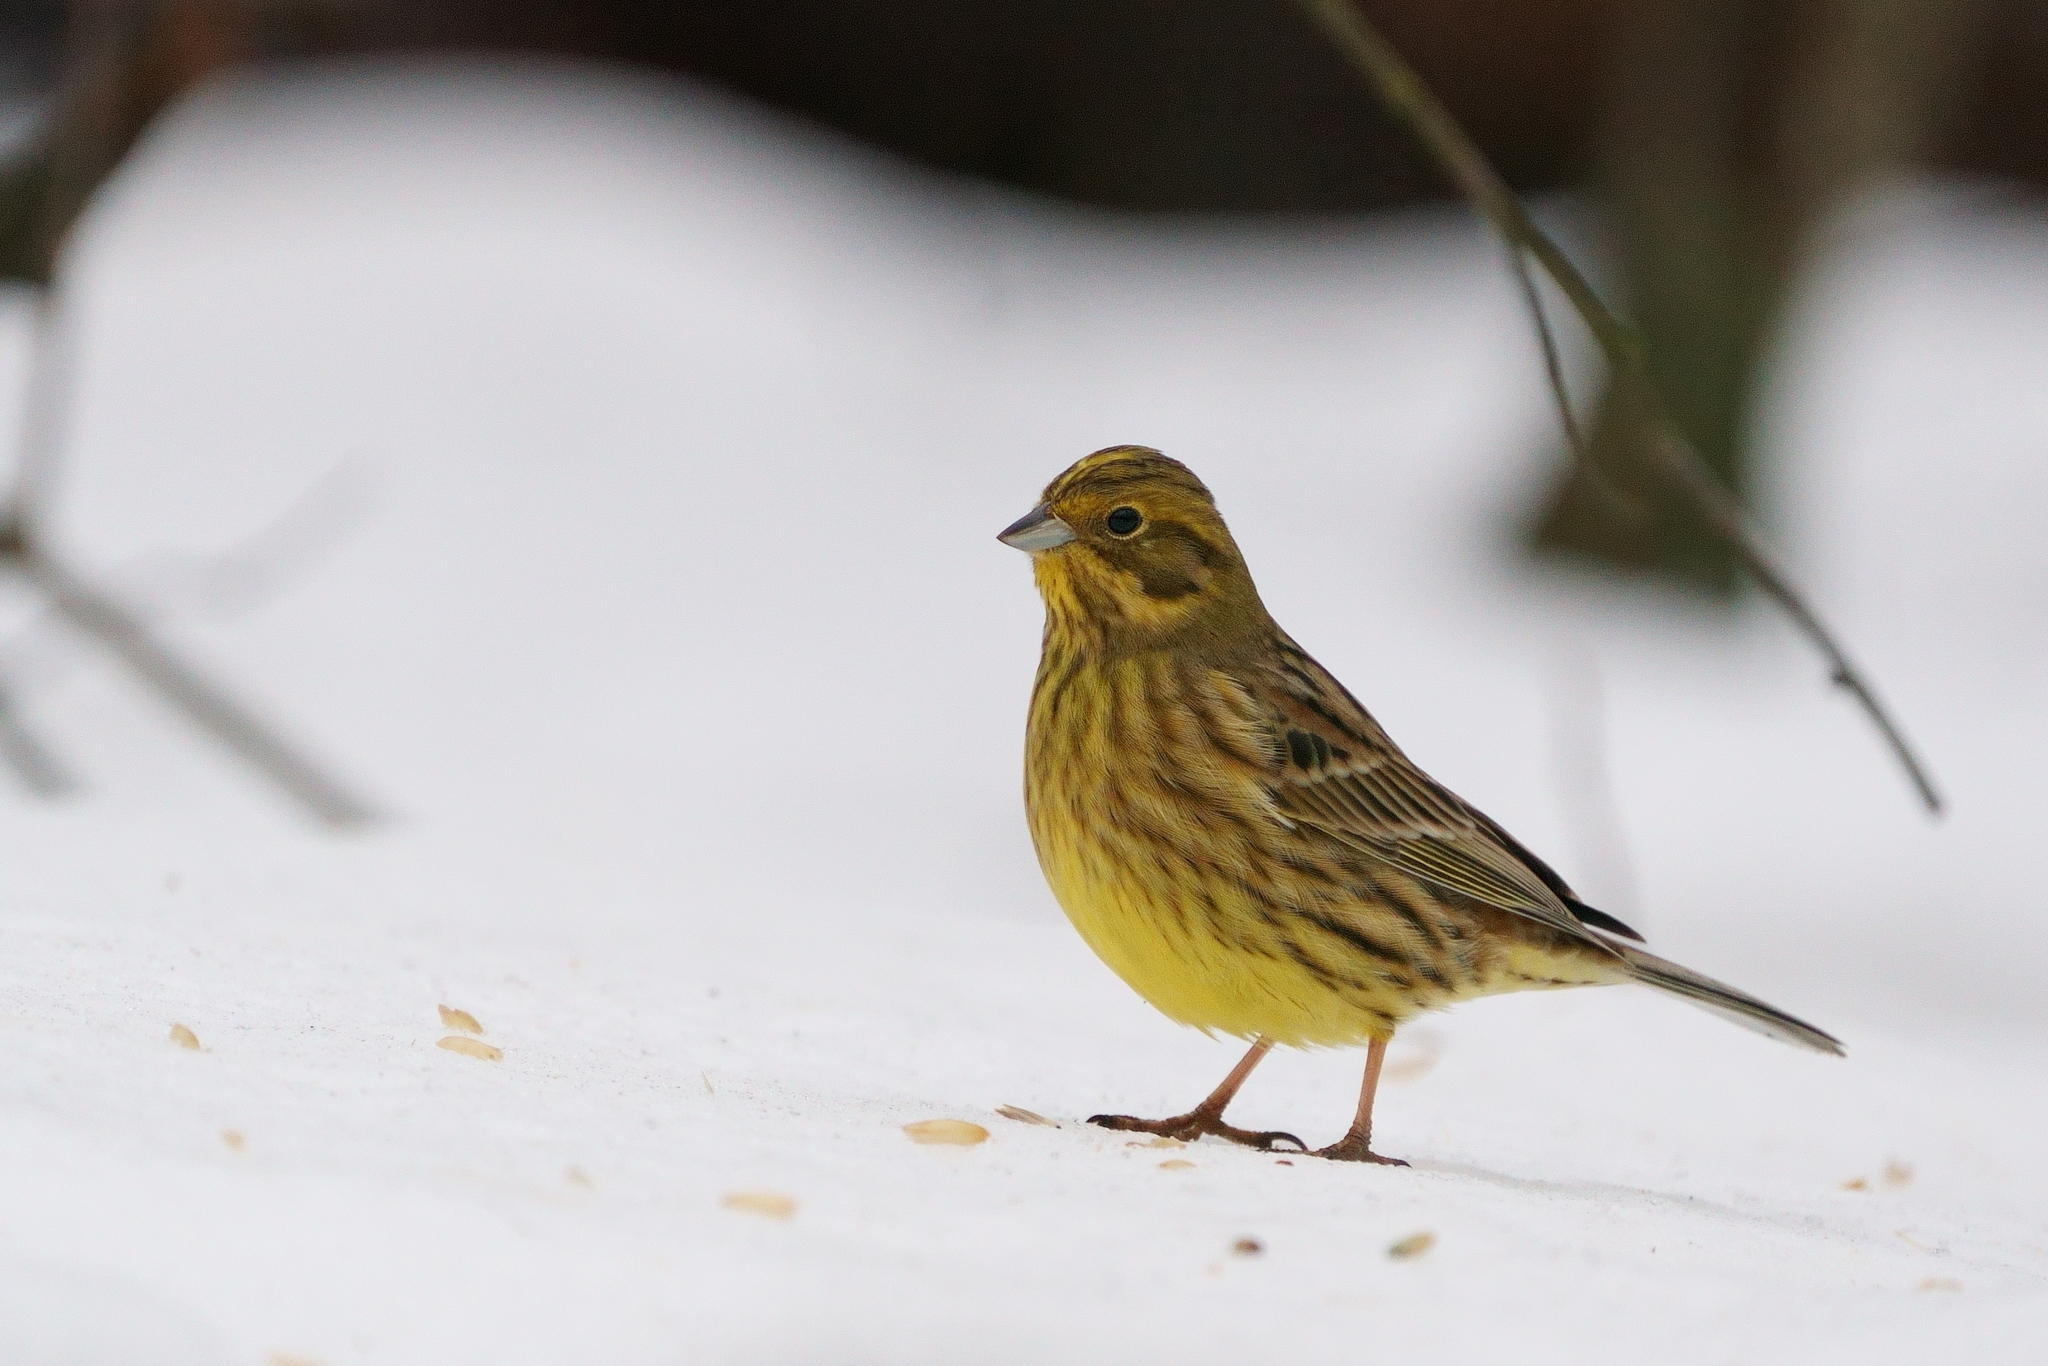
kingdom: Animalia
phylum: Chordata
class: Aves
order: Passeriformes
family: Emberizidae
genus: Emberiza
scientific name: Emberiza citrinella
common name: Yellowhammer
